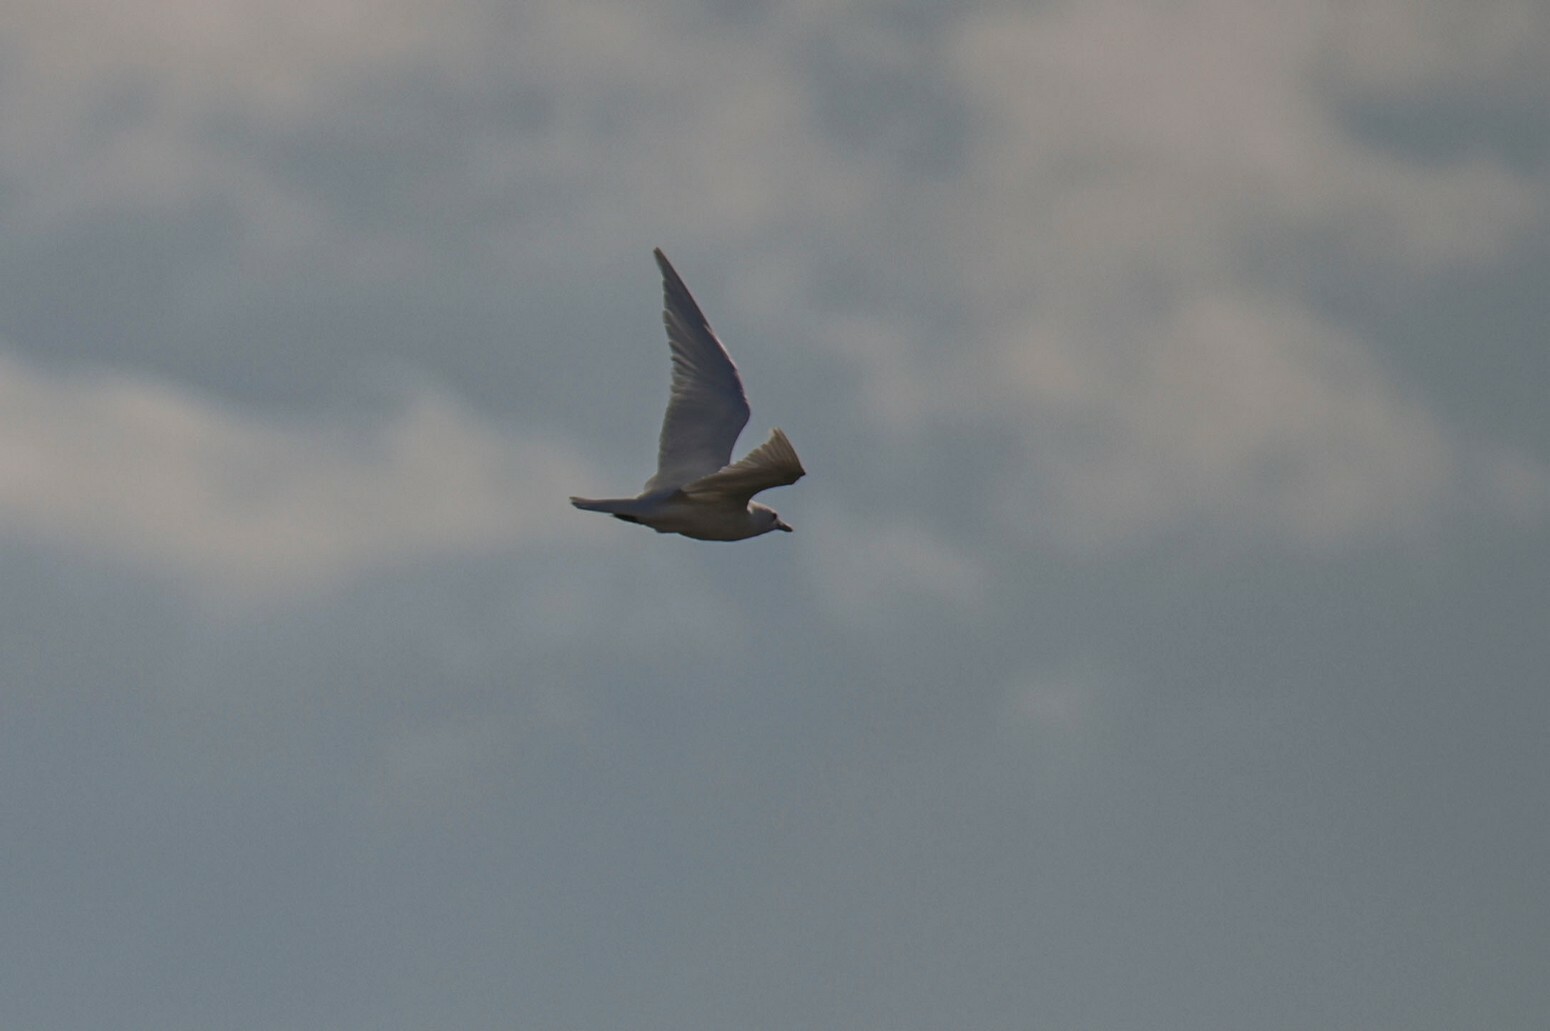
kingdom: Animalia
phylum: Chordata
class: Aves
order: Charadriiformes
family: Laridae
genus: Pagophila
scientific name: Pagophila eburnea
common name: Ivory gull
